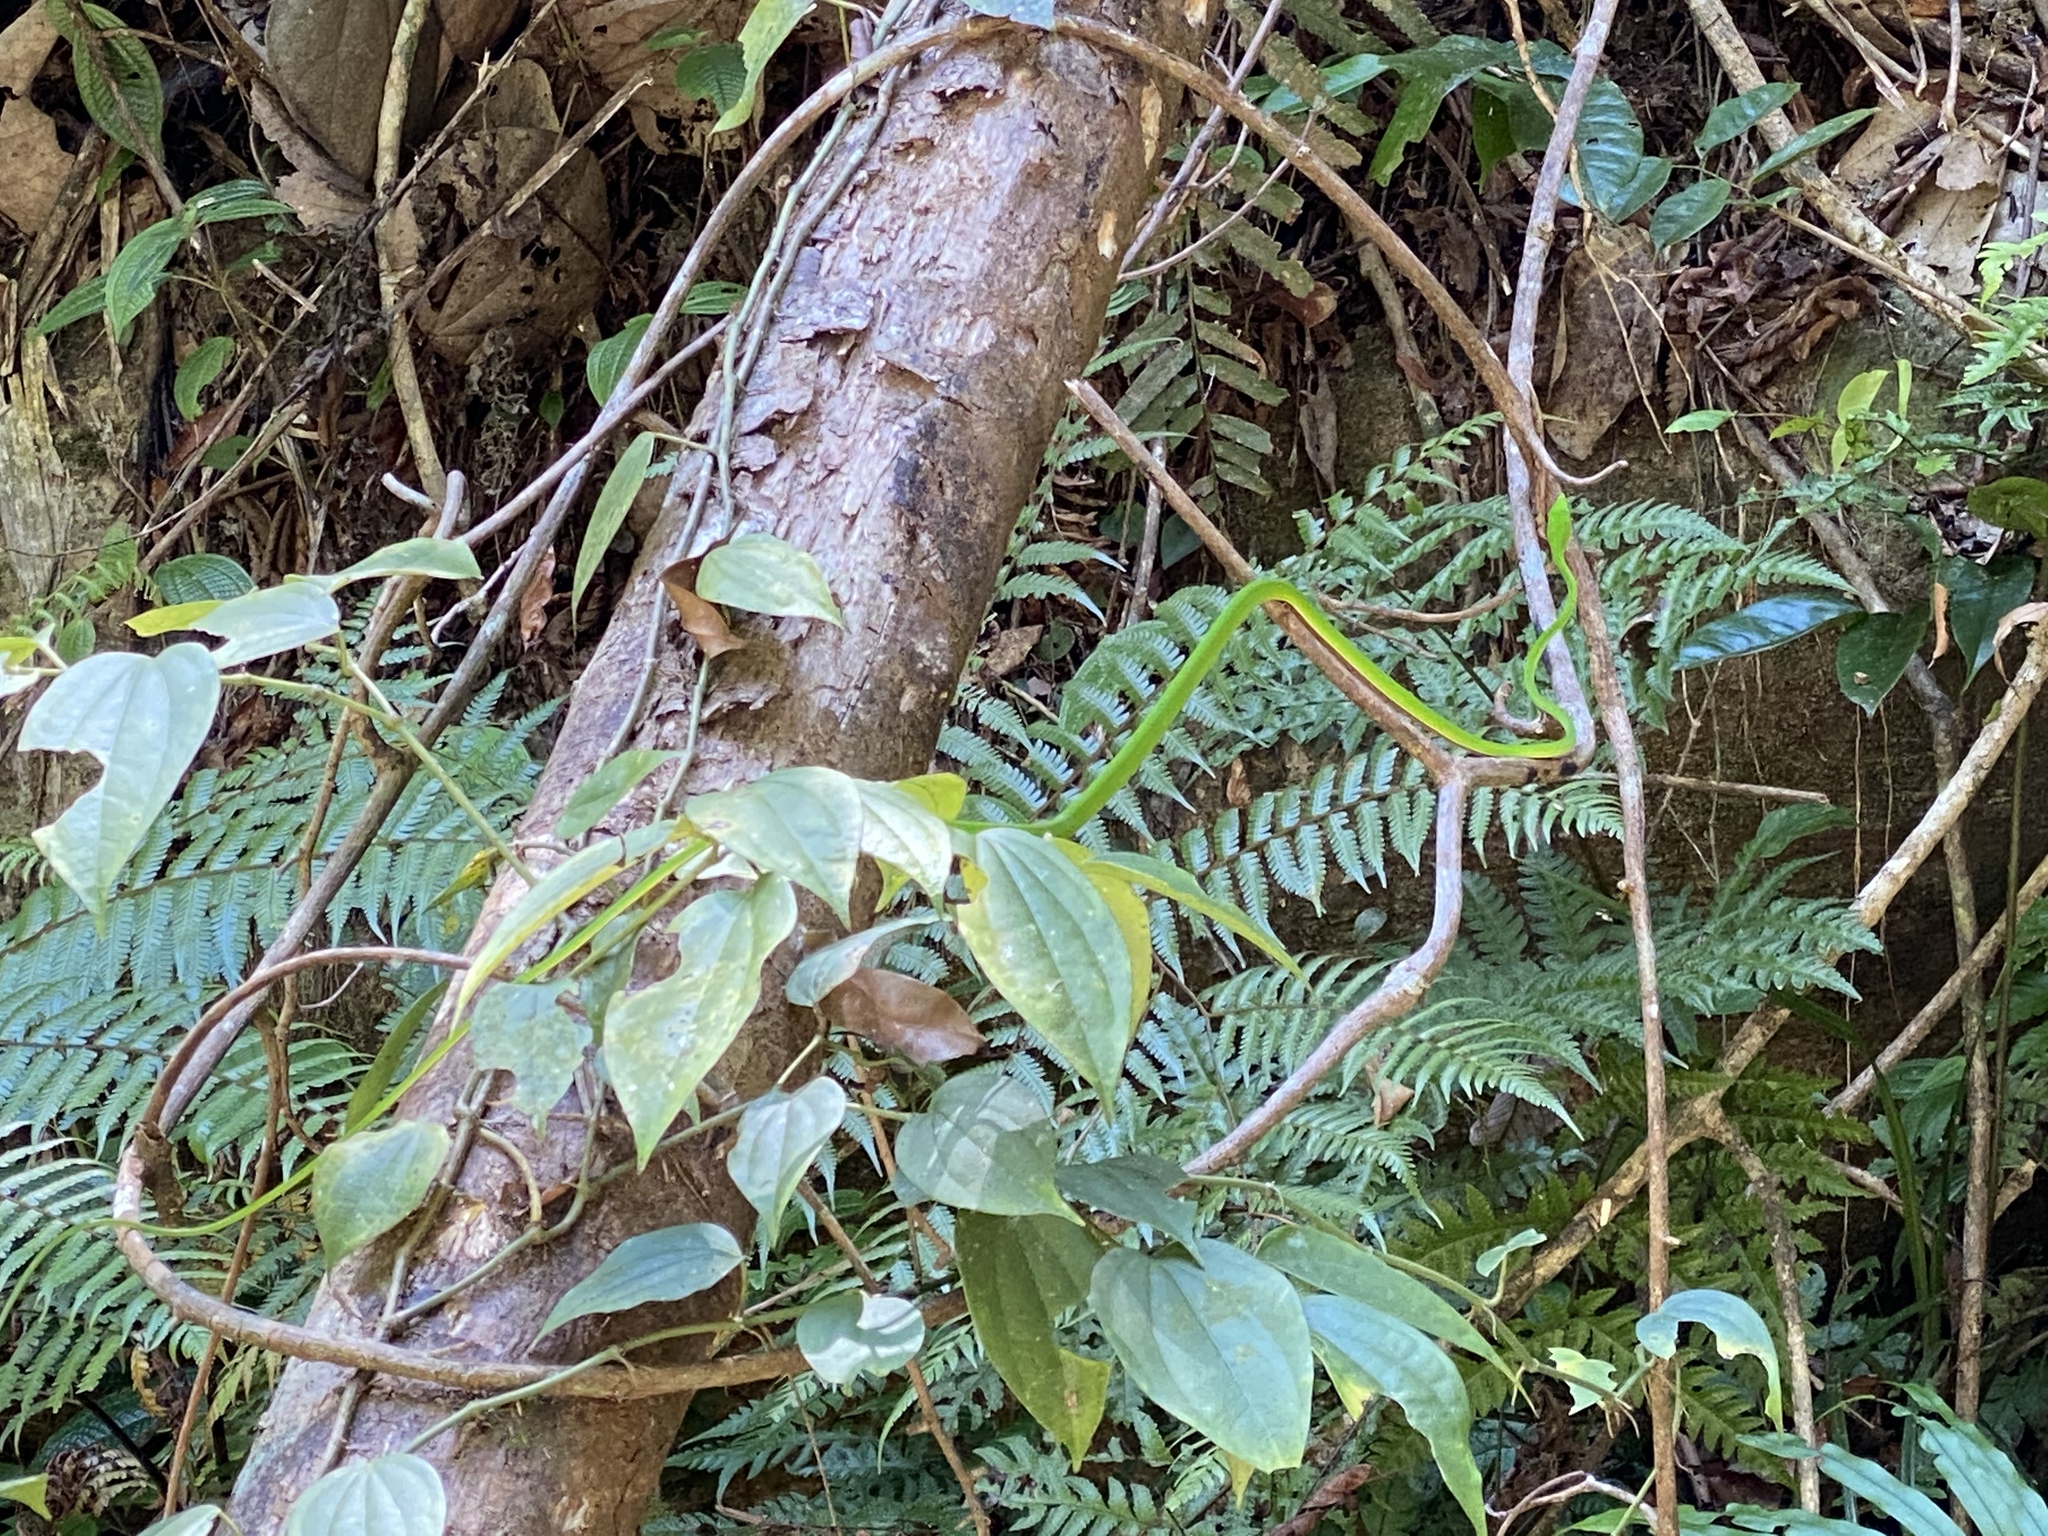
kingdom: Animalia
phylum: Chordata
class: Squamata
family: Colubridae
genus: Ahaetulla
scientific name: Ahaetulla nasuta
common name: Green vine snake
